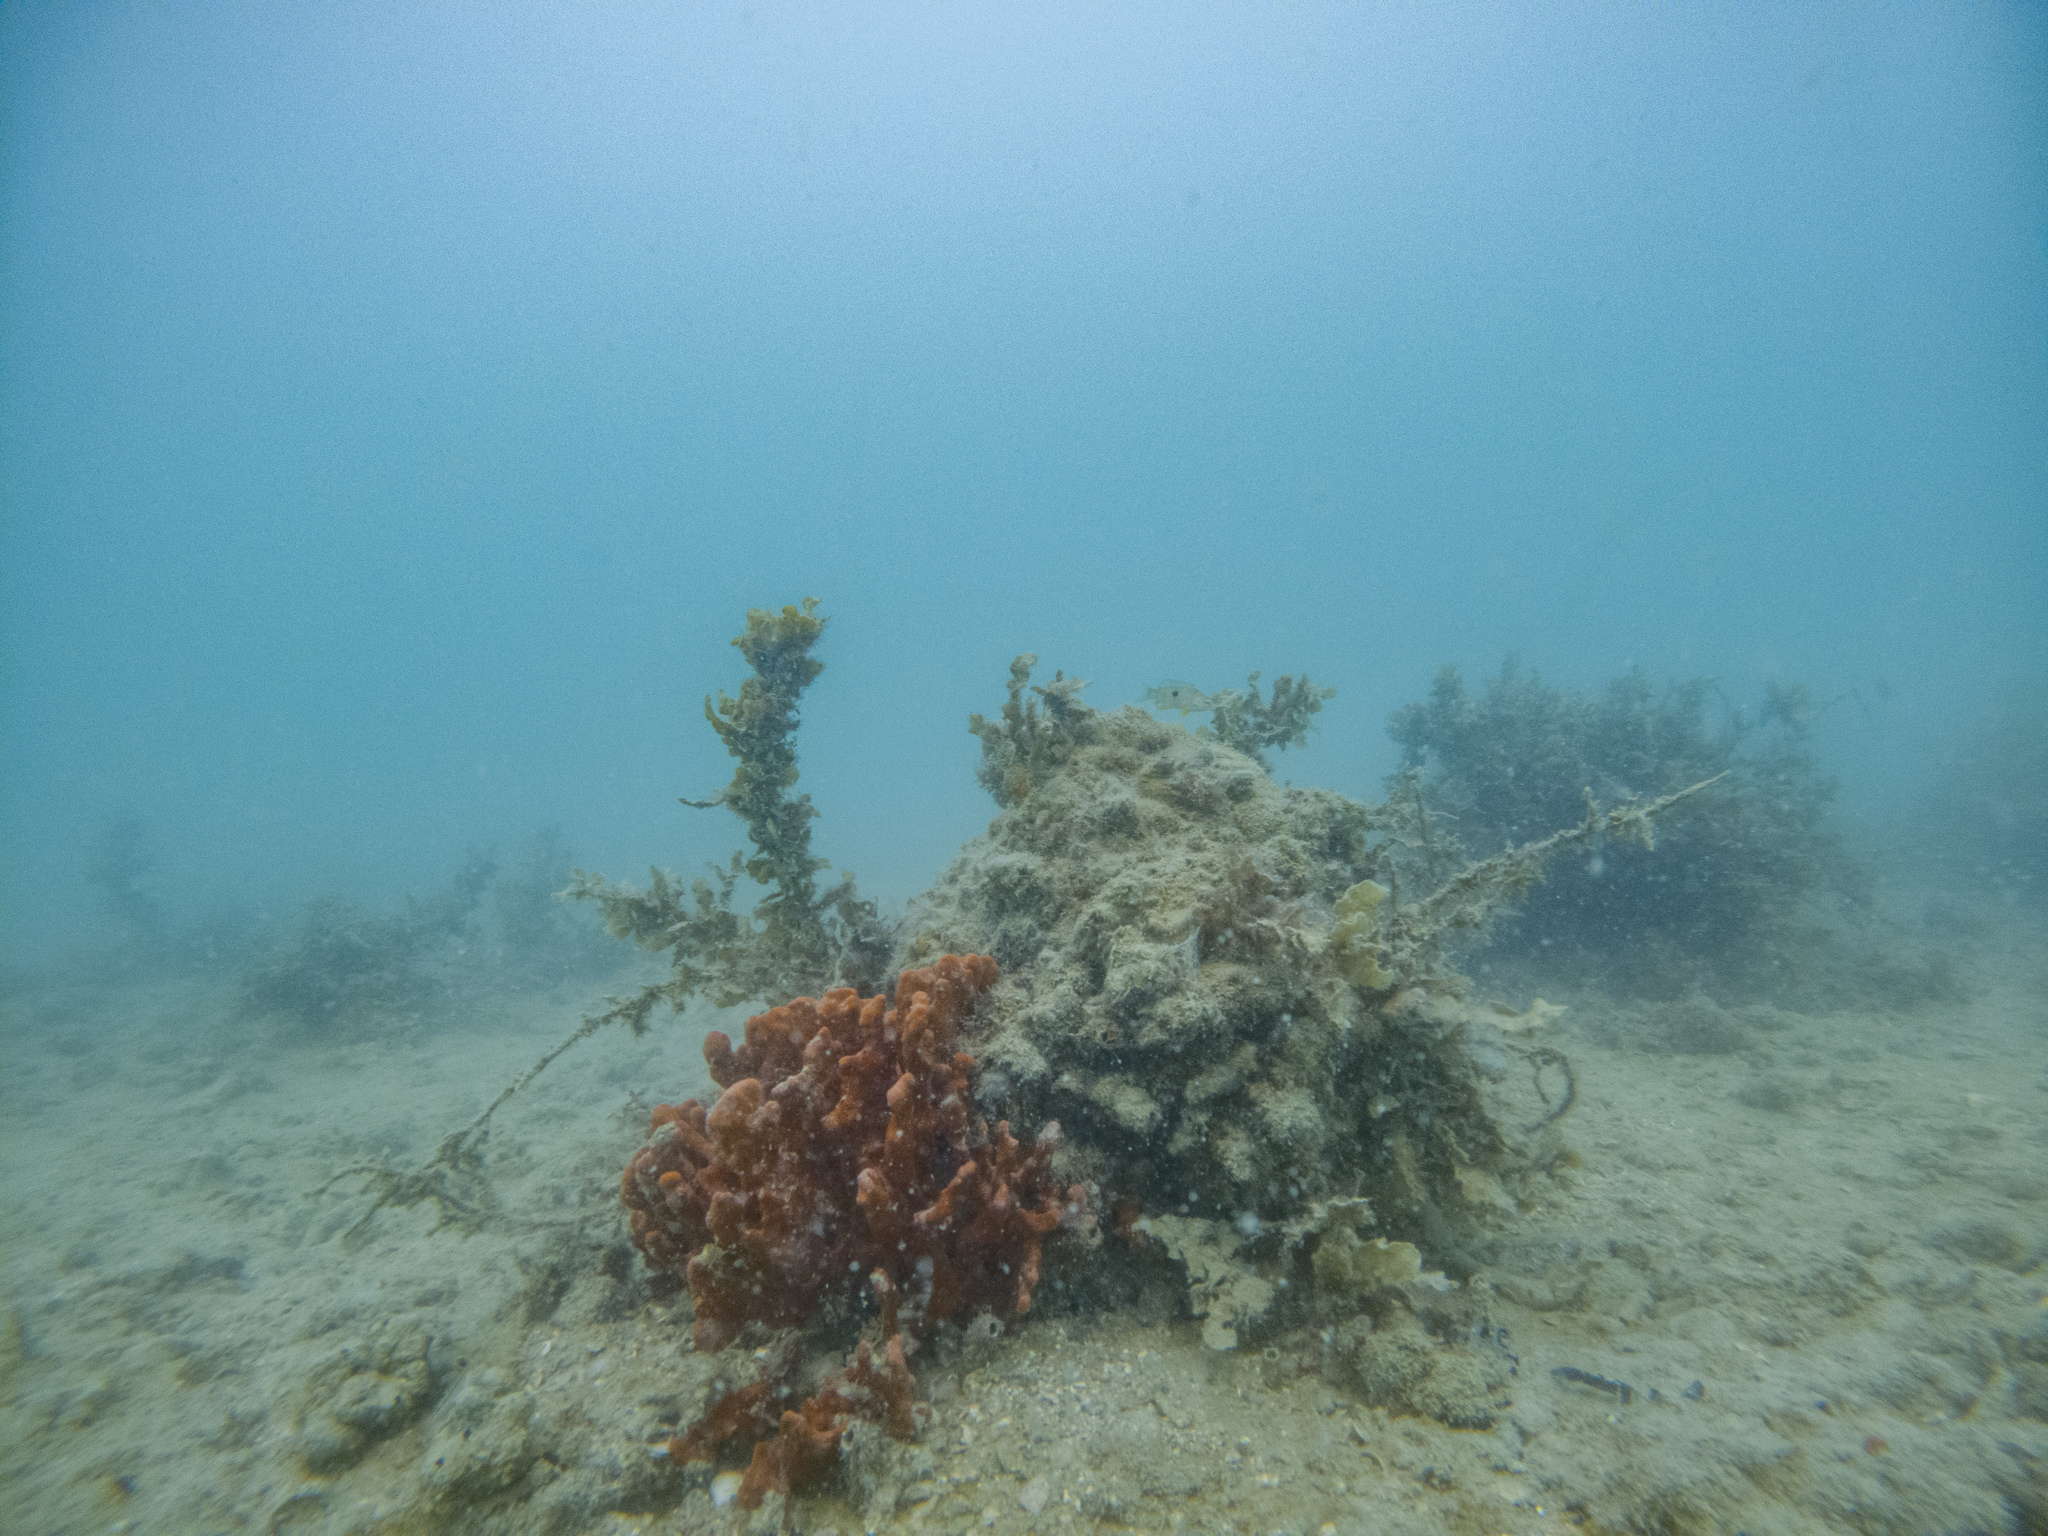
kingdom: Animalia
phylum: Porifera
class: Demospongiae
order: Poecilosclerida
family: Crellidae
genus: Crella
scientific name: Crella incrustans
